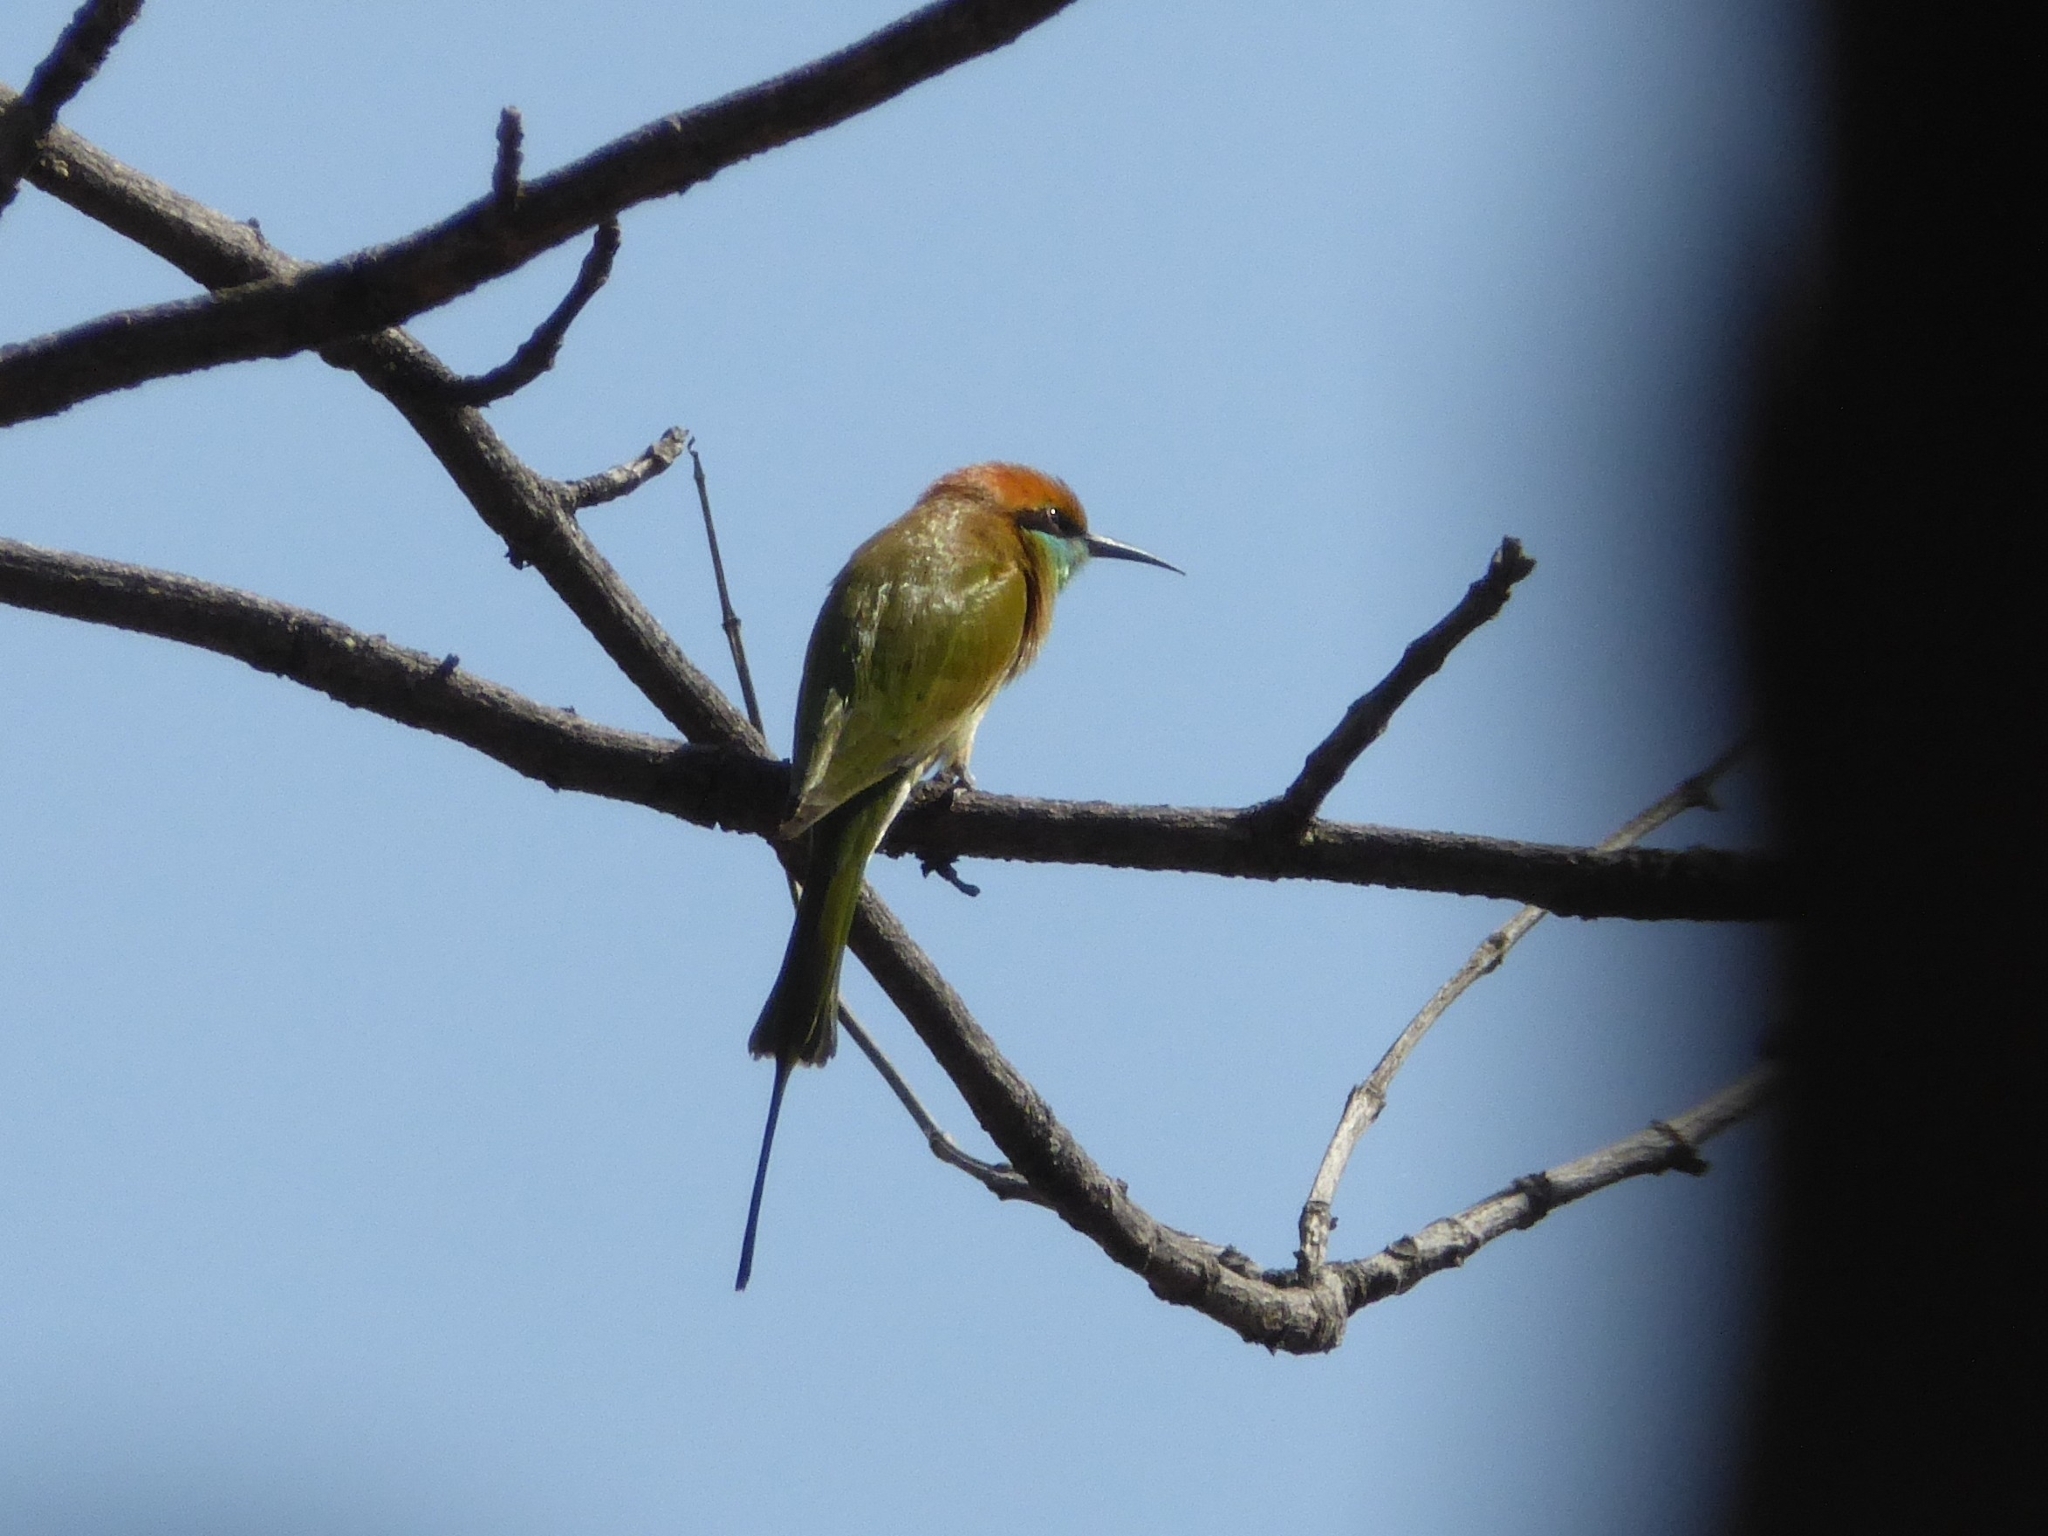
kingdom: Animalia
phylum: Chordata
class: Aves
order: Coraciiformes
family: Meropidae
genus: Merops
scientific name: Merops orientalis
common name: Green bee-eater
